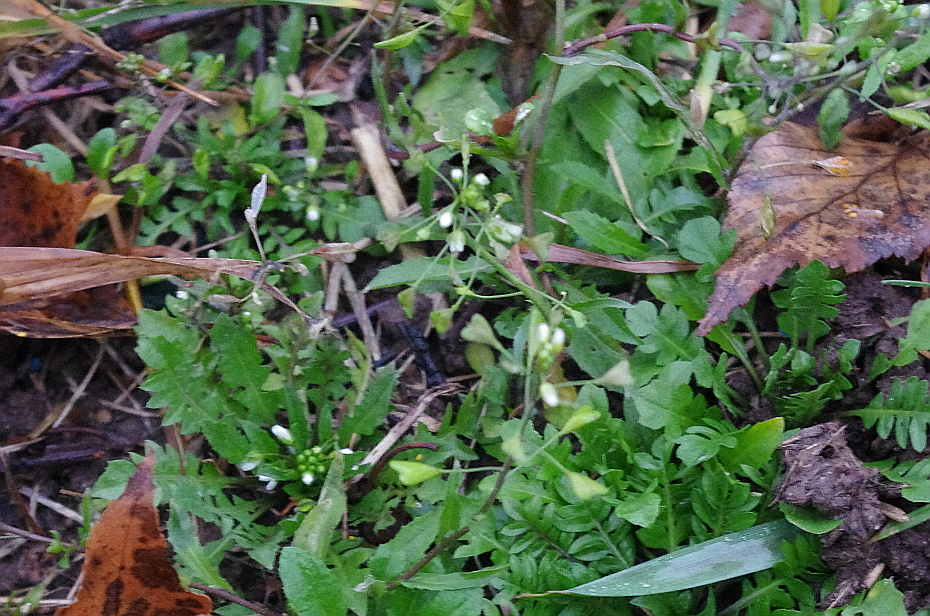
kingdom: Plantae
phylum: Tracheophyta
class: Magnoliopsida
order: Brassicales
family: Brassicaceae
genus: Capsella
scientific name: Capsella bursa-pastoris
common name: Shepherd's purse
